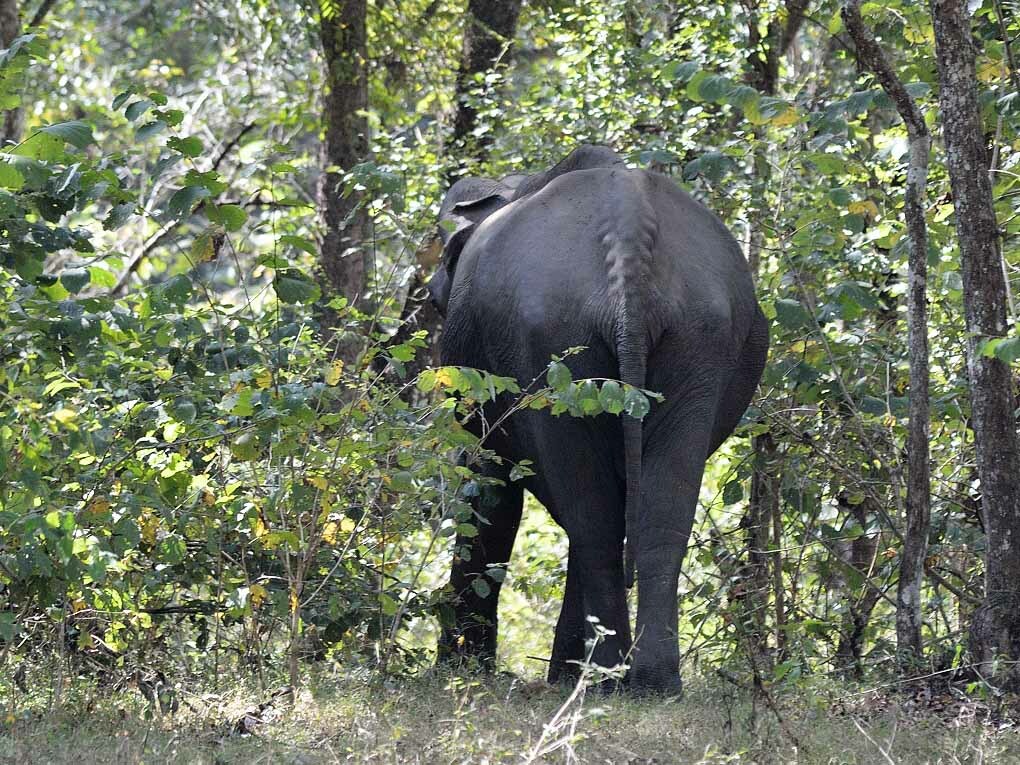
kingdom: Animalia
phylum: Chordata
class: Mammalia
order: Proboscidea
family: Elephantidae
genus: Elephas
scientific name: Elephas maximus
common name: Asian elephant
